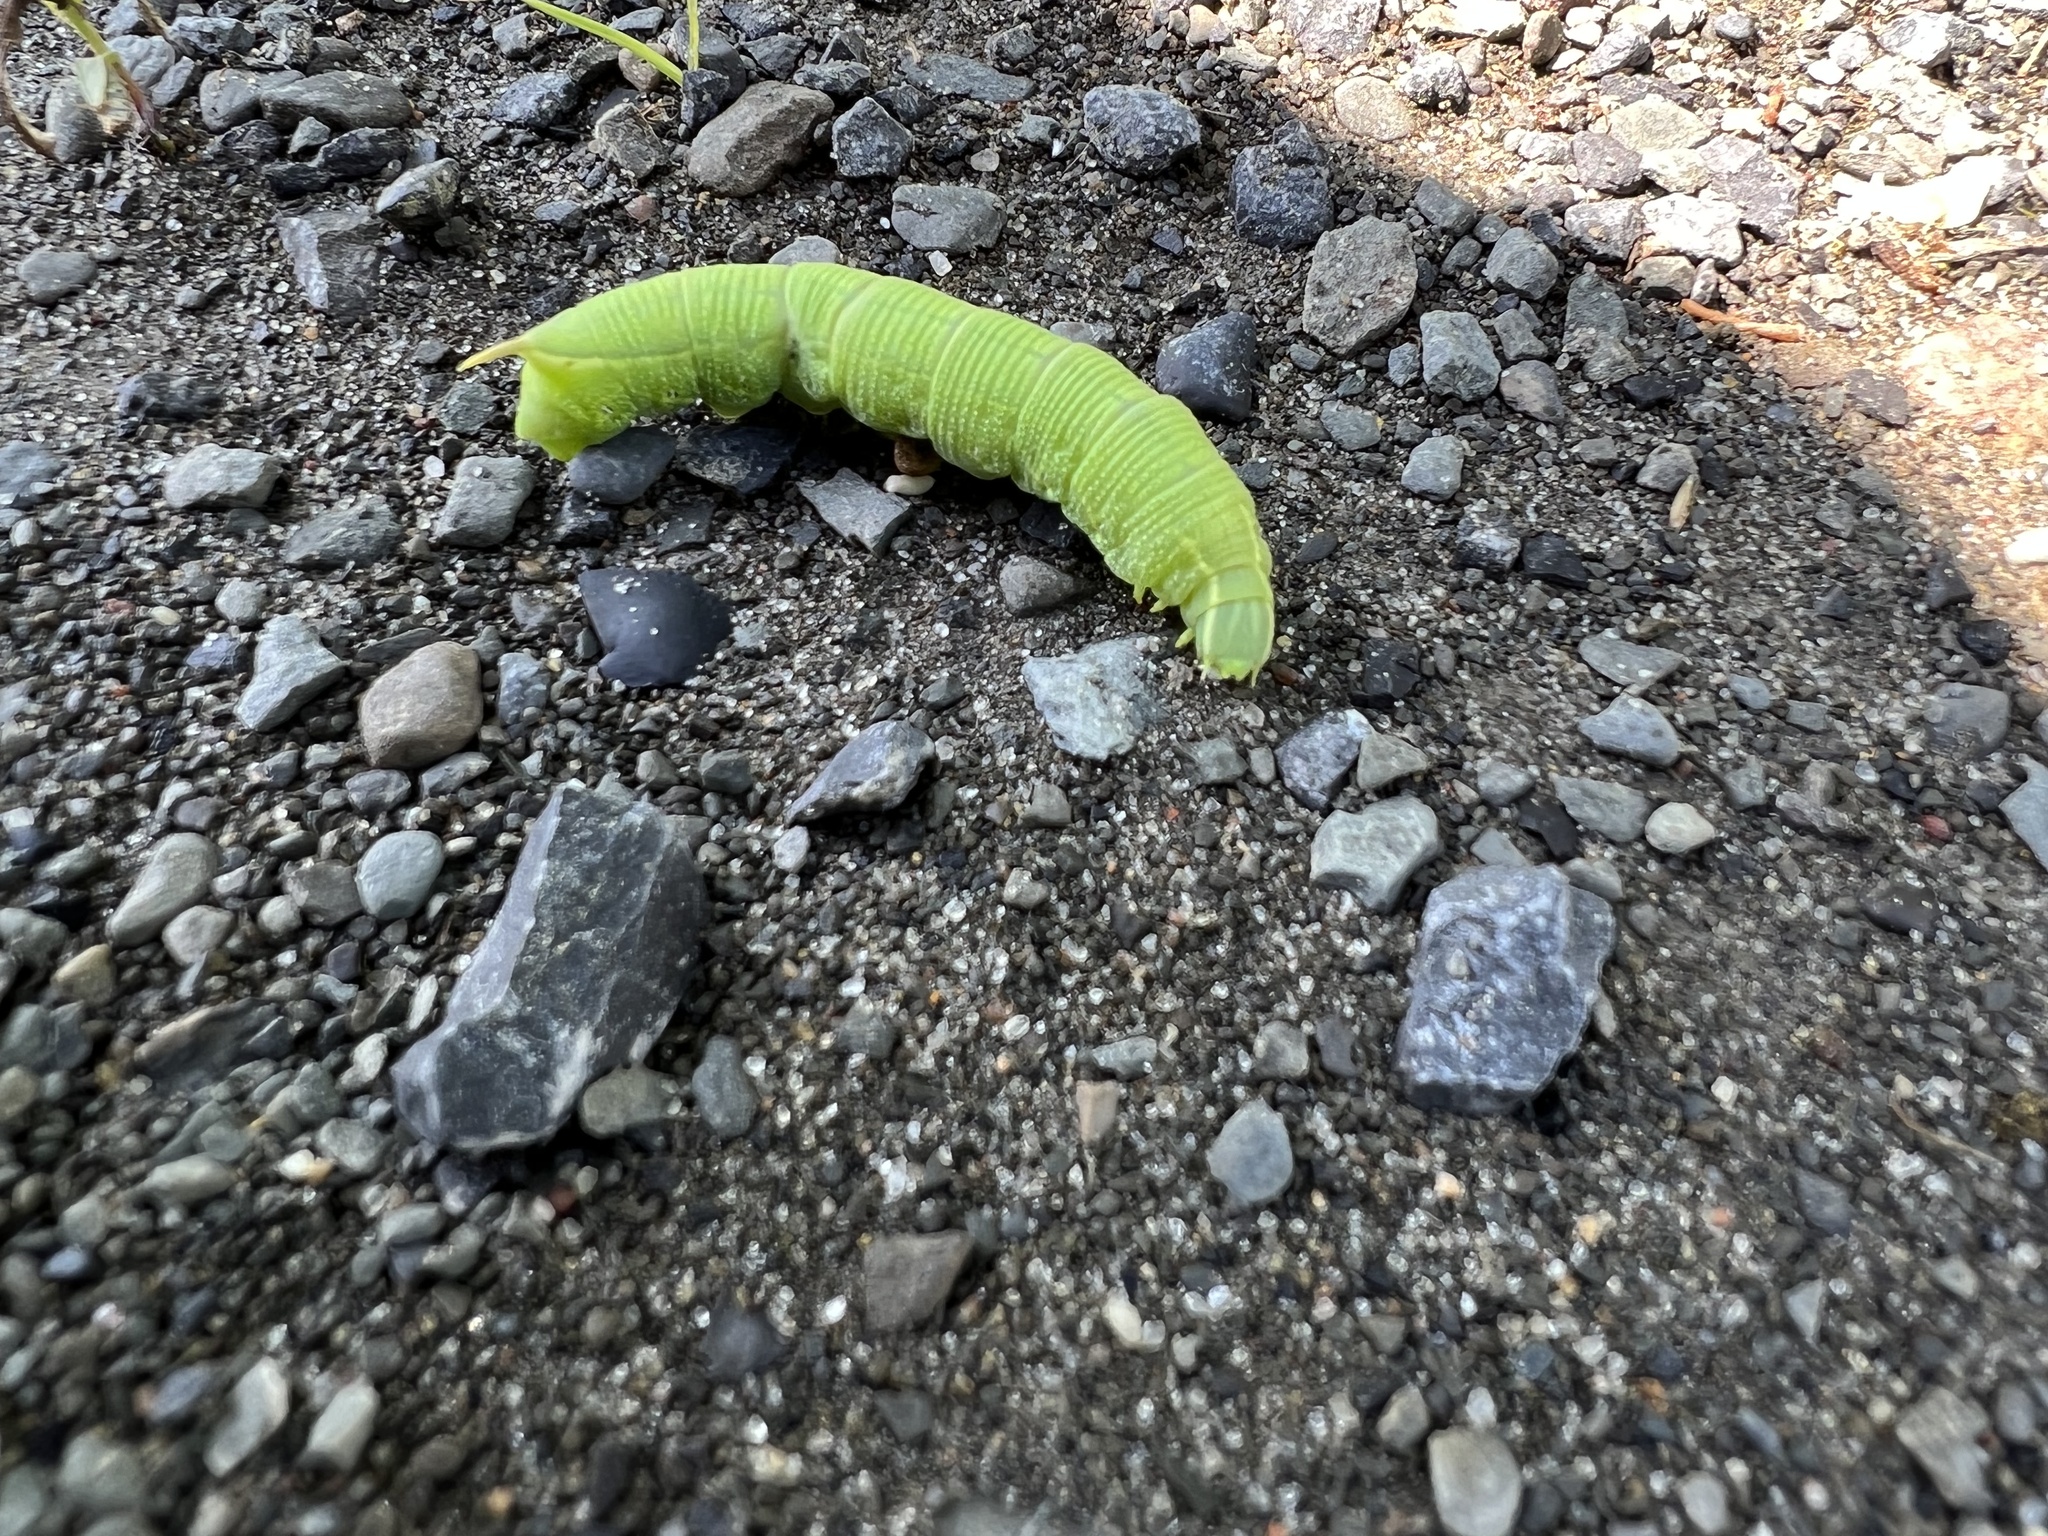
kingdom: Animalia
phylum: Arthropoda
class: Insecta
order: Lepidoptera
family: Sphingidae
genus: Deidamia
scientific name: Deidamia inscriptum
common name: Lettered sphinx
